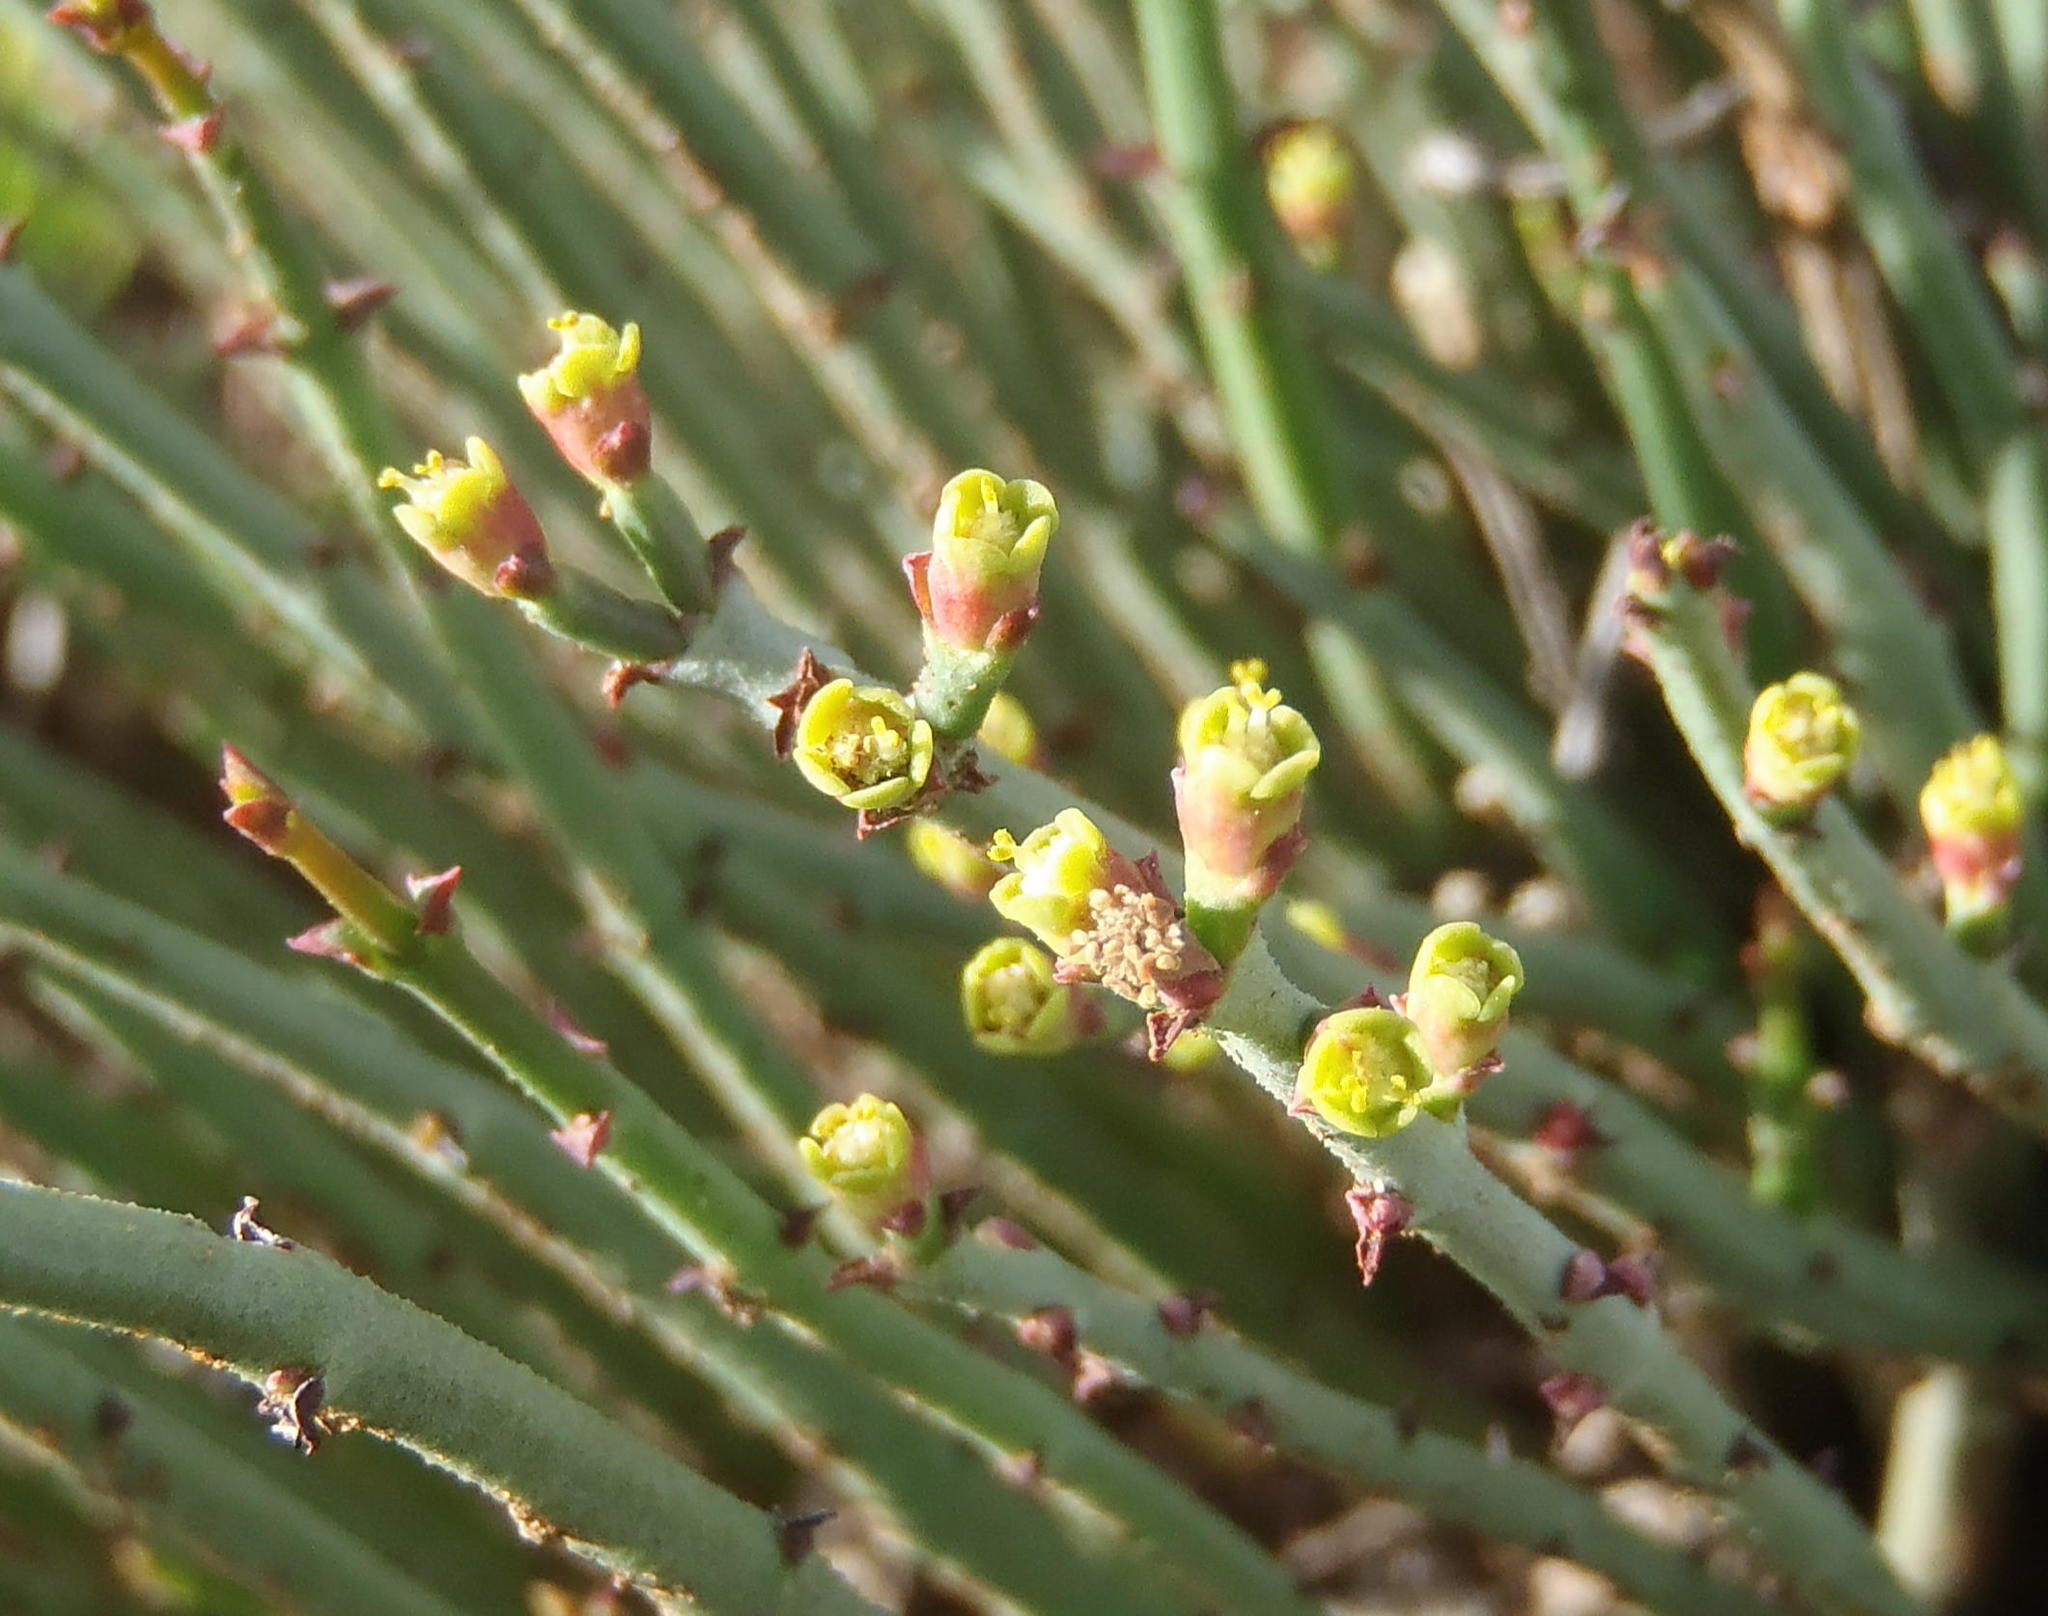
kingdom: Plantae
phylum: Tracheophyta
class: Magnoliopsida
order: Malpighiales
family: Euphorbiaceae
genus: Euphorbia
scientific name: Euphorbia caterviflora
